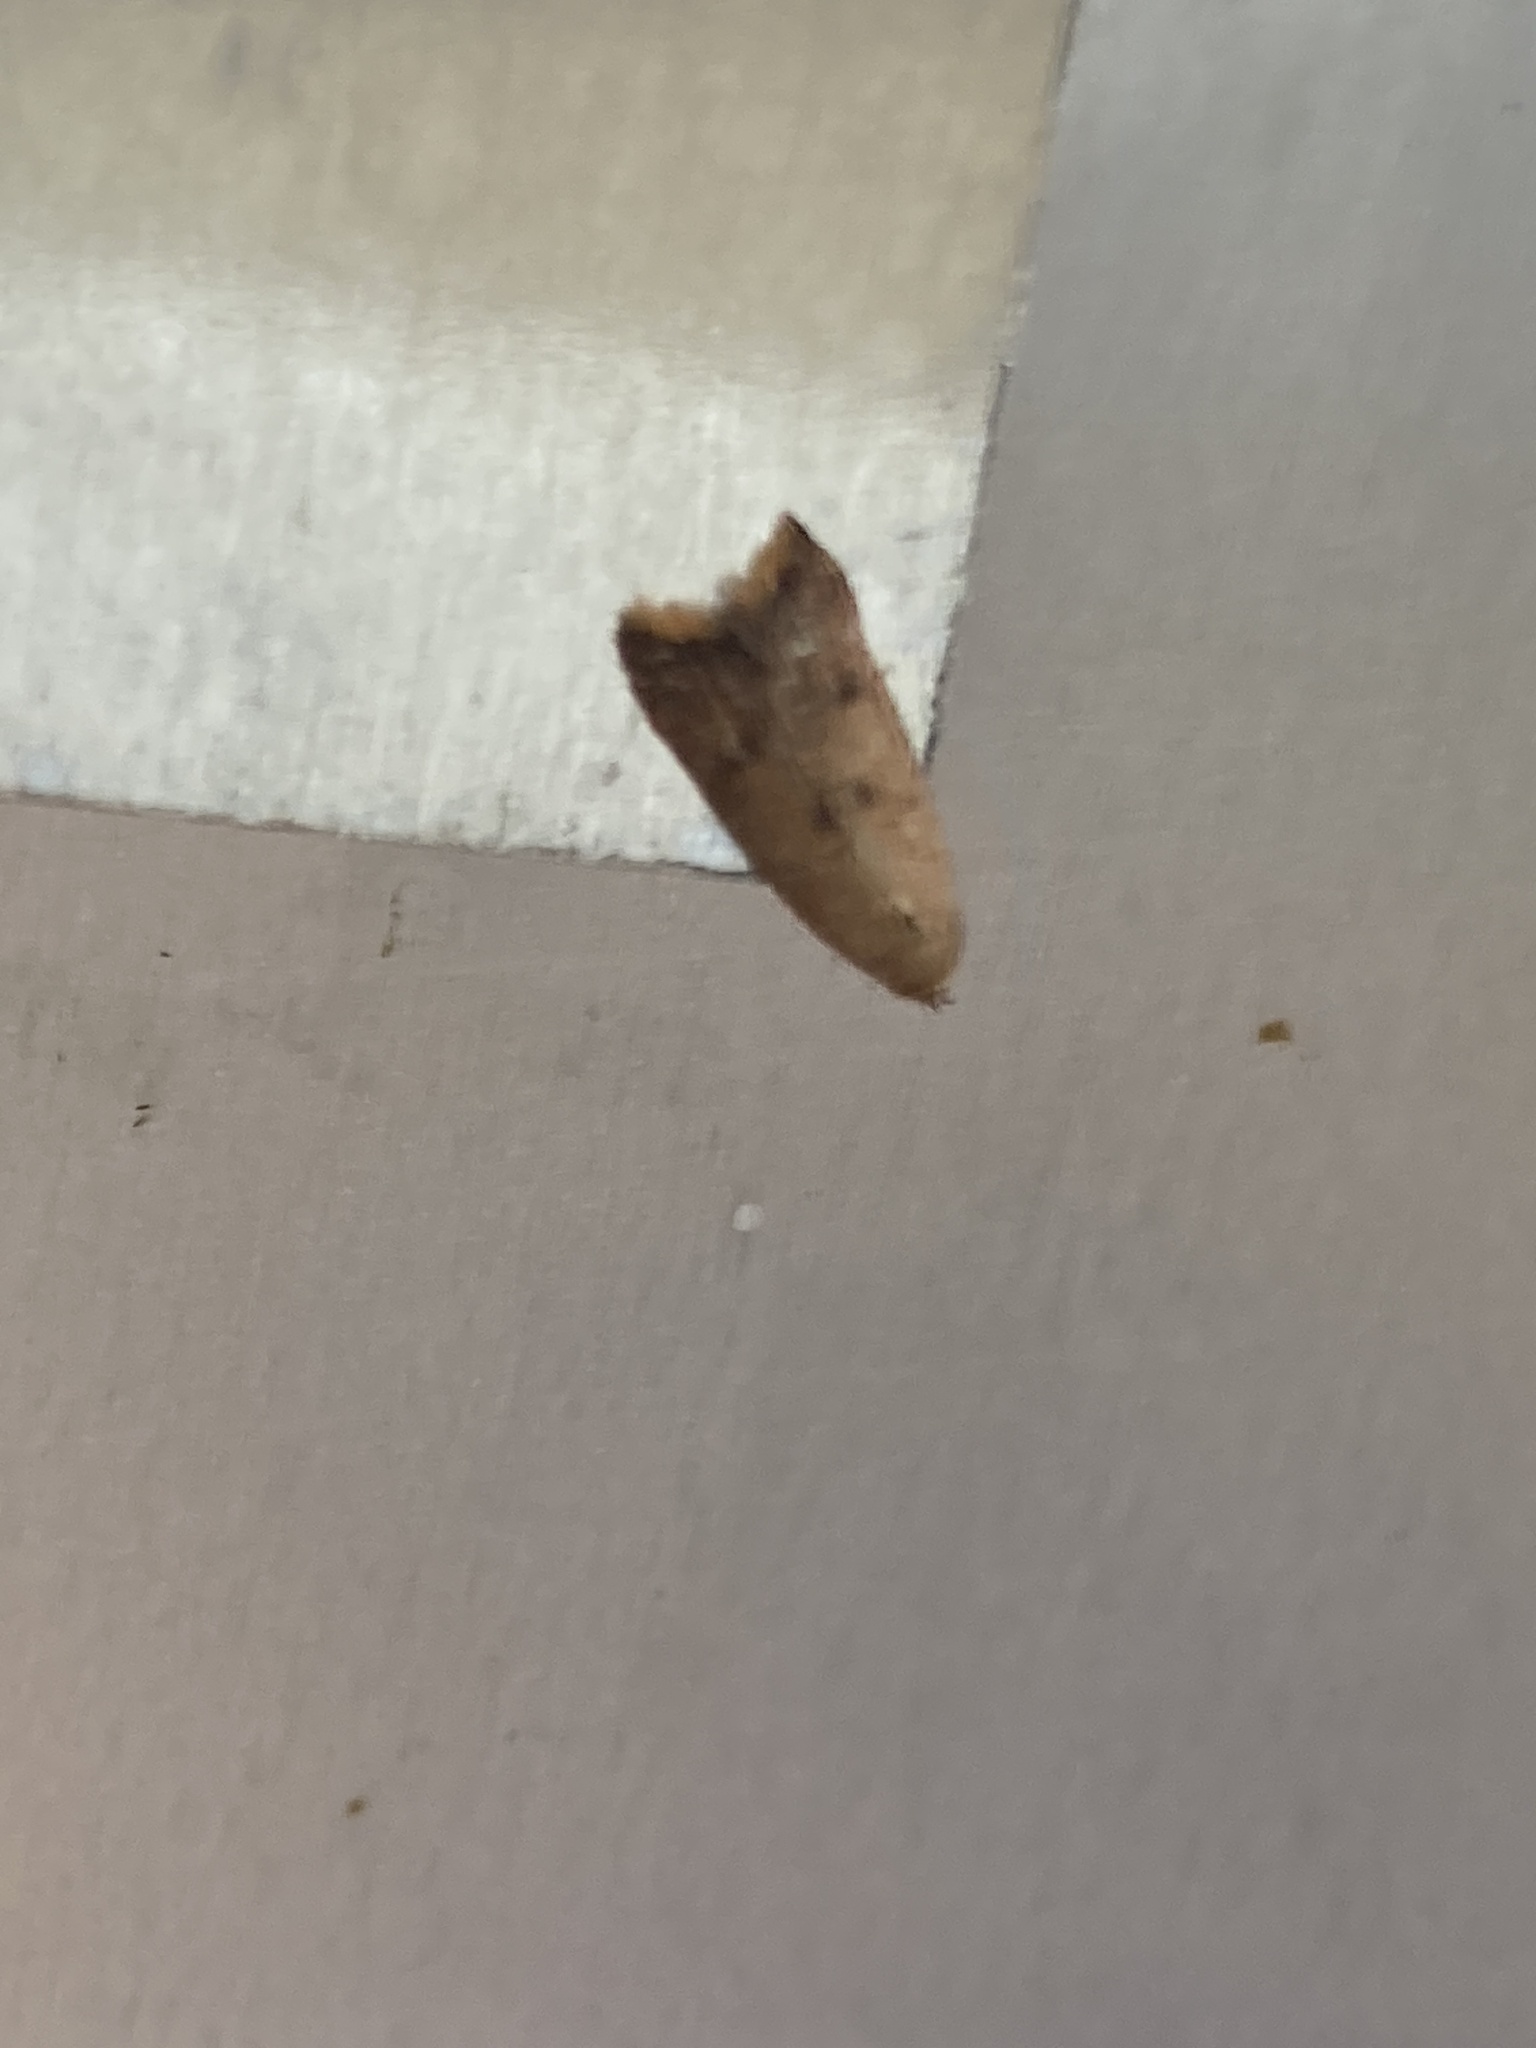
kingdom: Animalia
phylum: Arthropoda
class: Insecta
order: Lepidoptera
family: Oecophoridae
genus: Tachystola
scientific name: Tachystola acroxantha
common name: Ruddy streak
